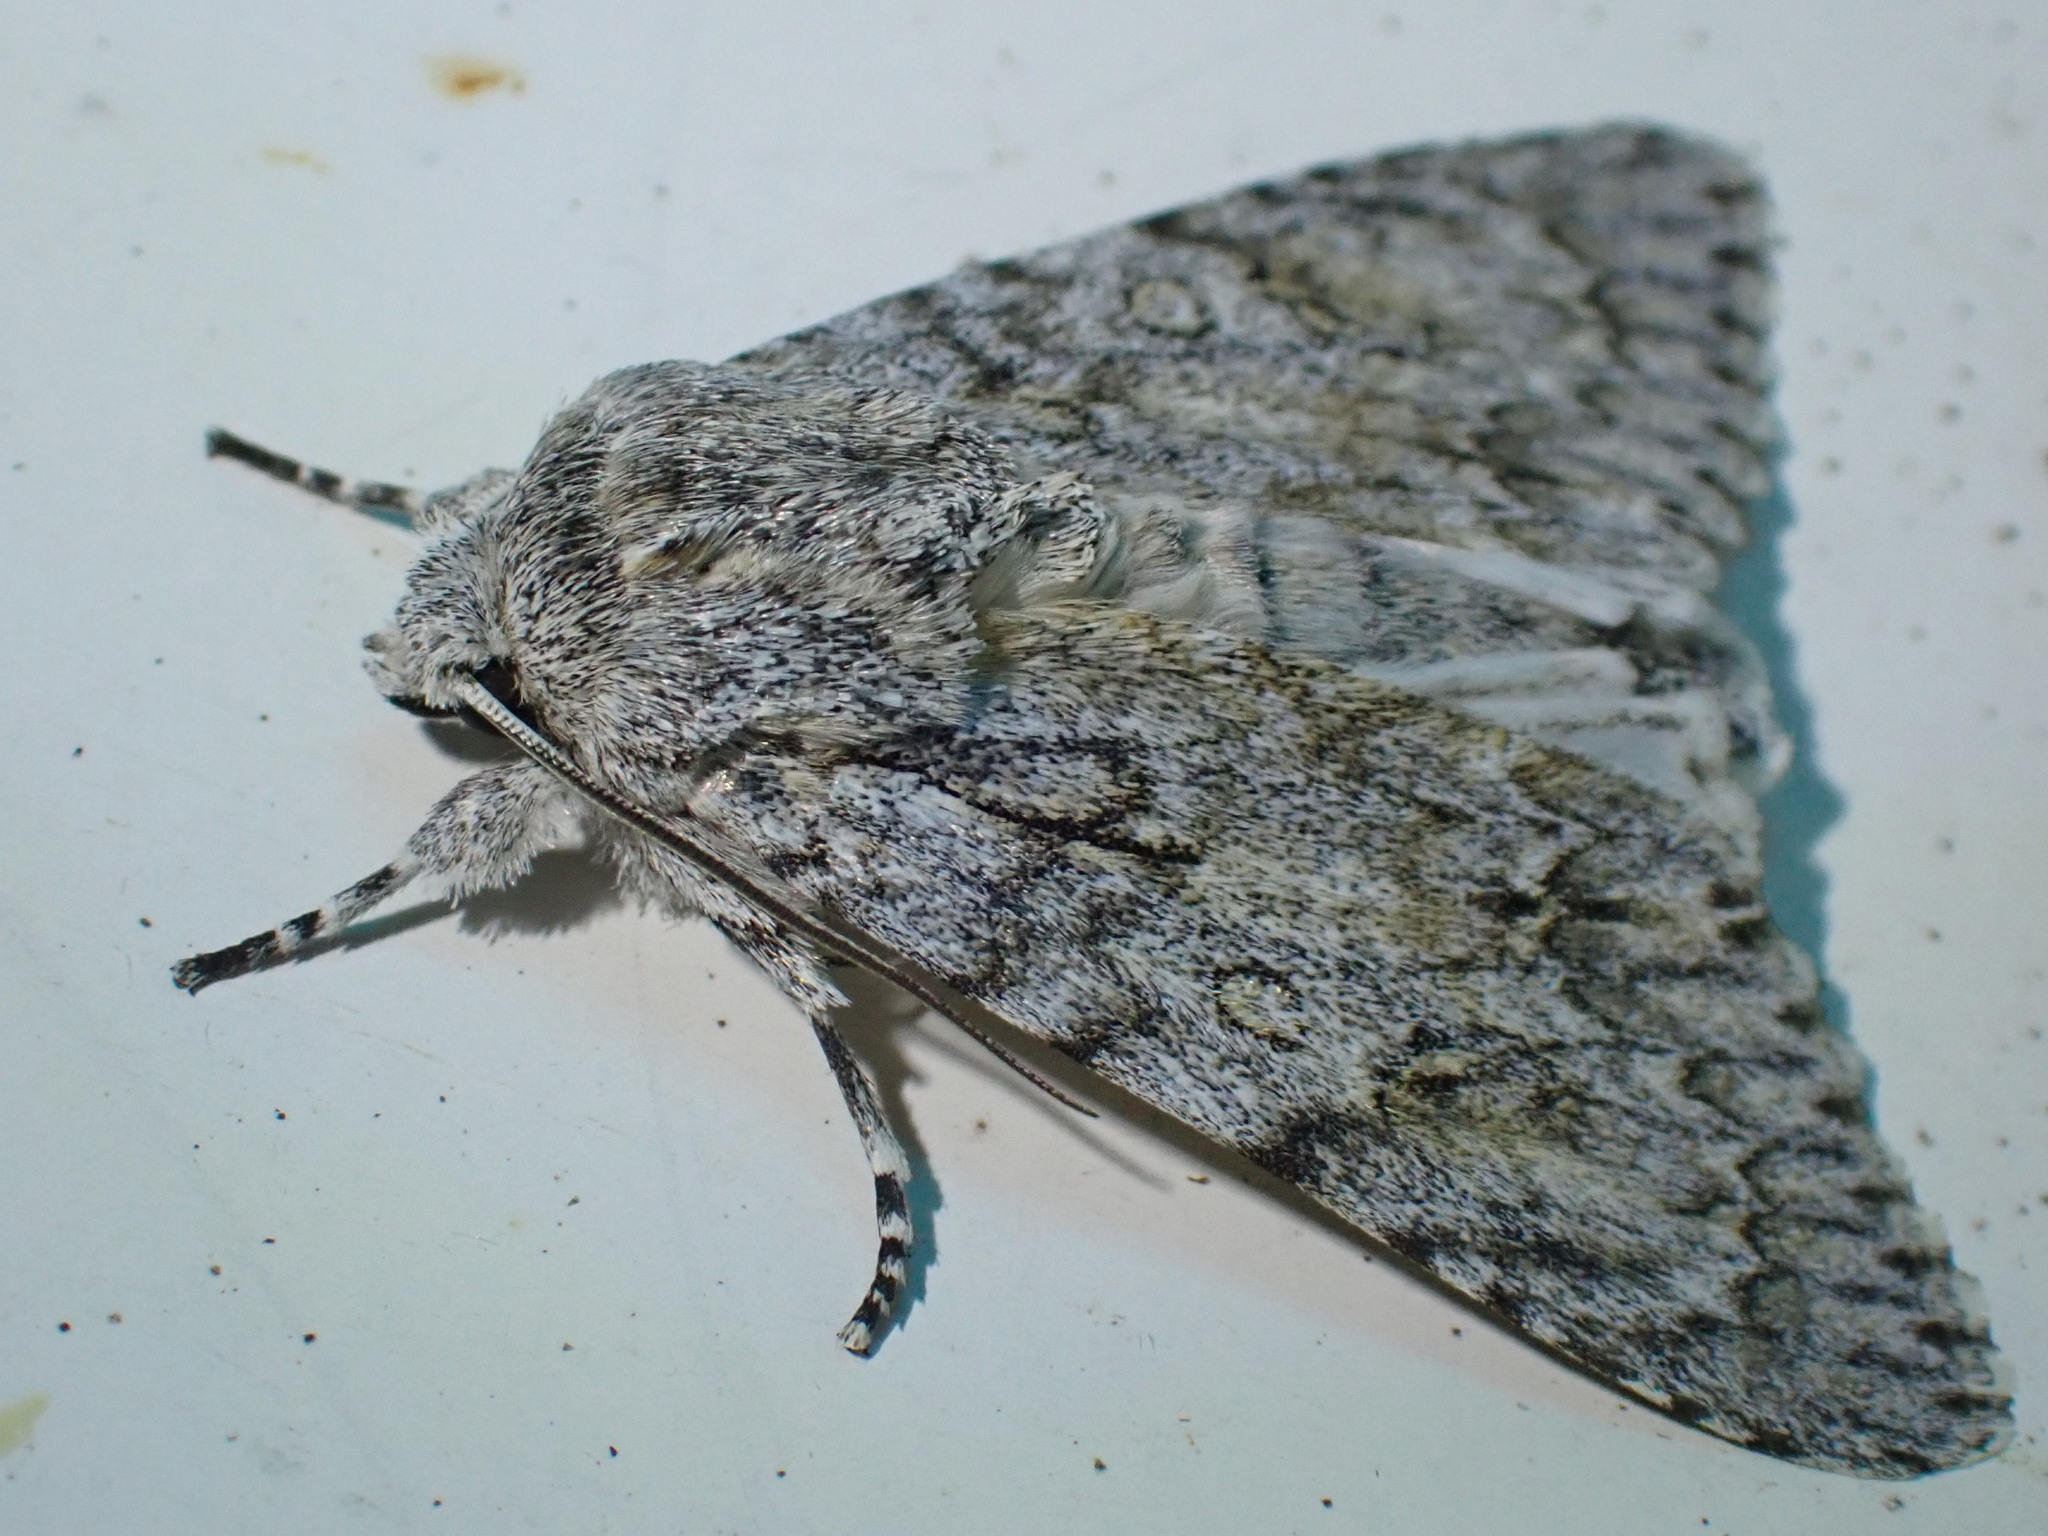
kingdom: Animalia
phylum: Arthropoda
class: Insecta
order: Lepidoptera
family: Noctuidae
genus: Acronicta
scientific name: Acronicta aceris
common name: Sycamore
